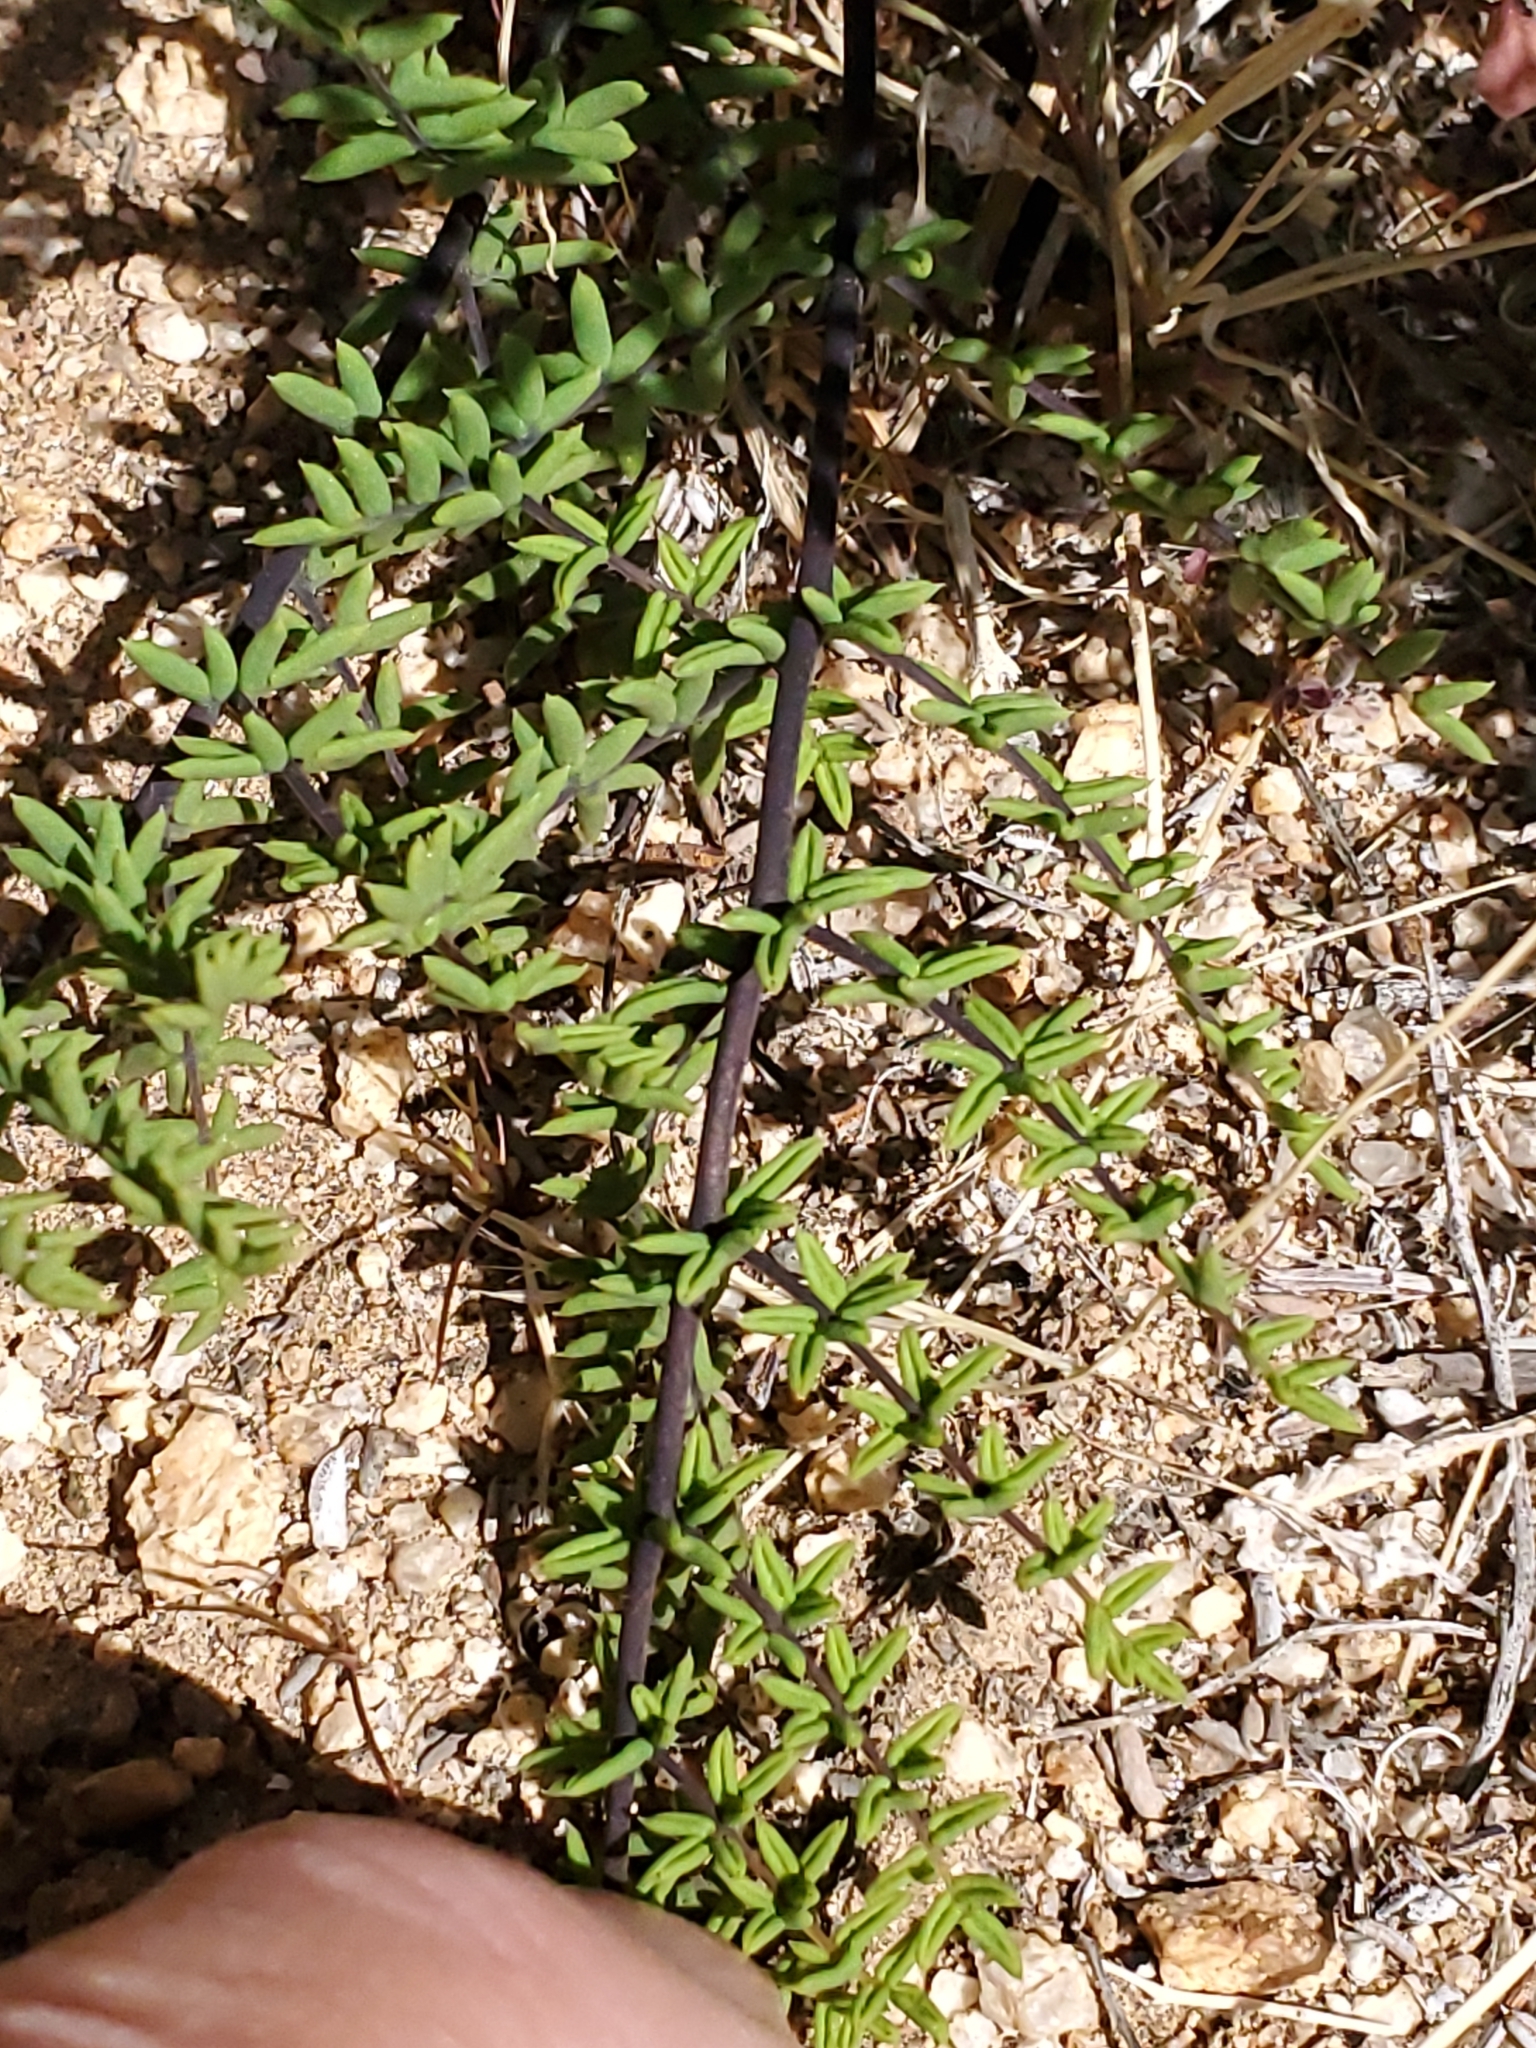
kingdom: Plantae
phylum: Tracheophyta
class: Polypodiopsida
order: Polypodiales
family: Pteridaceae
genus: Pellaea
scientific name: Pellaea mucronata
